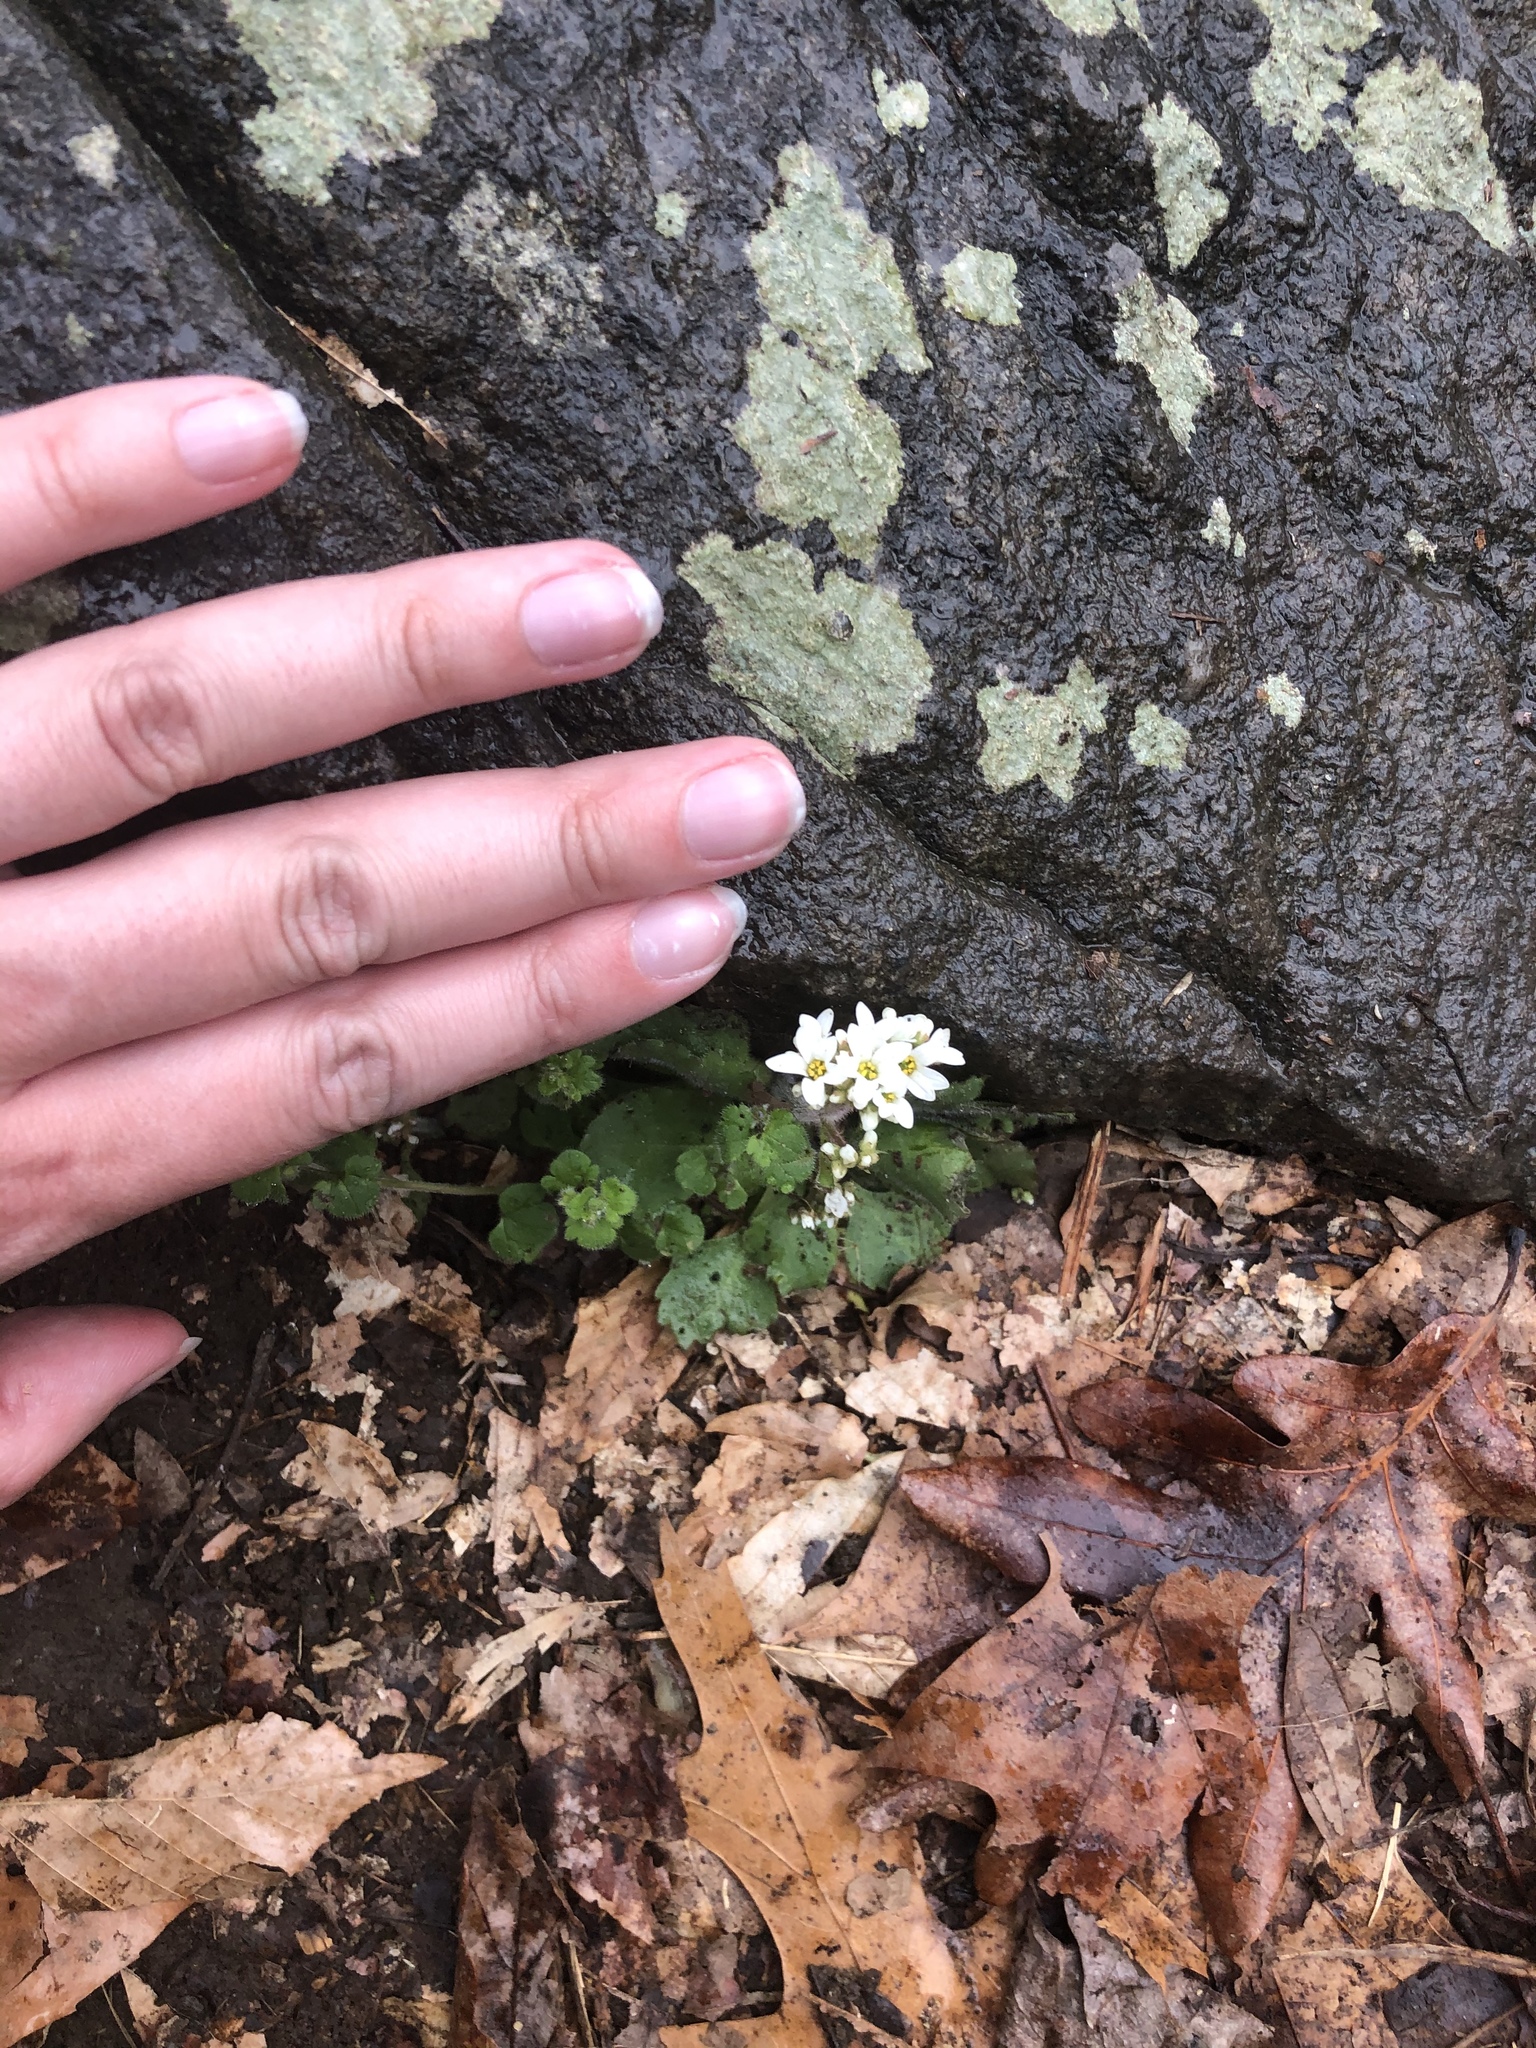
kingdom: Plantae
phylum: Tracheophyta
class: Magnoliopsida
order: Saxifragales
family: Saxifragaceae
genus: Micranthes
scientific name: Micranthes virginiensis
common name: Early saxifrage
